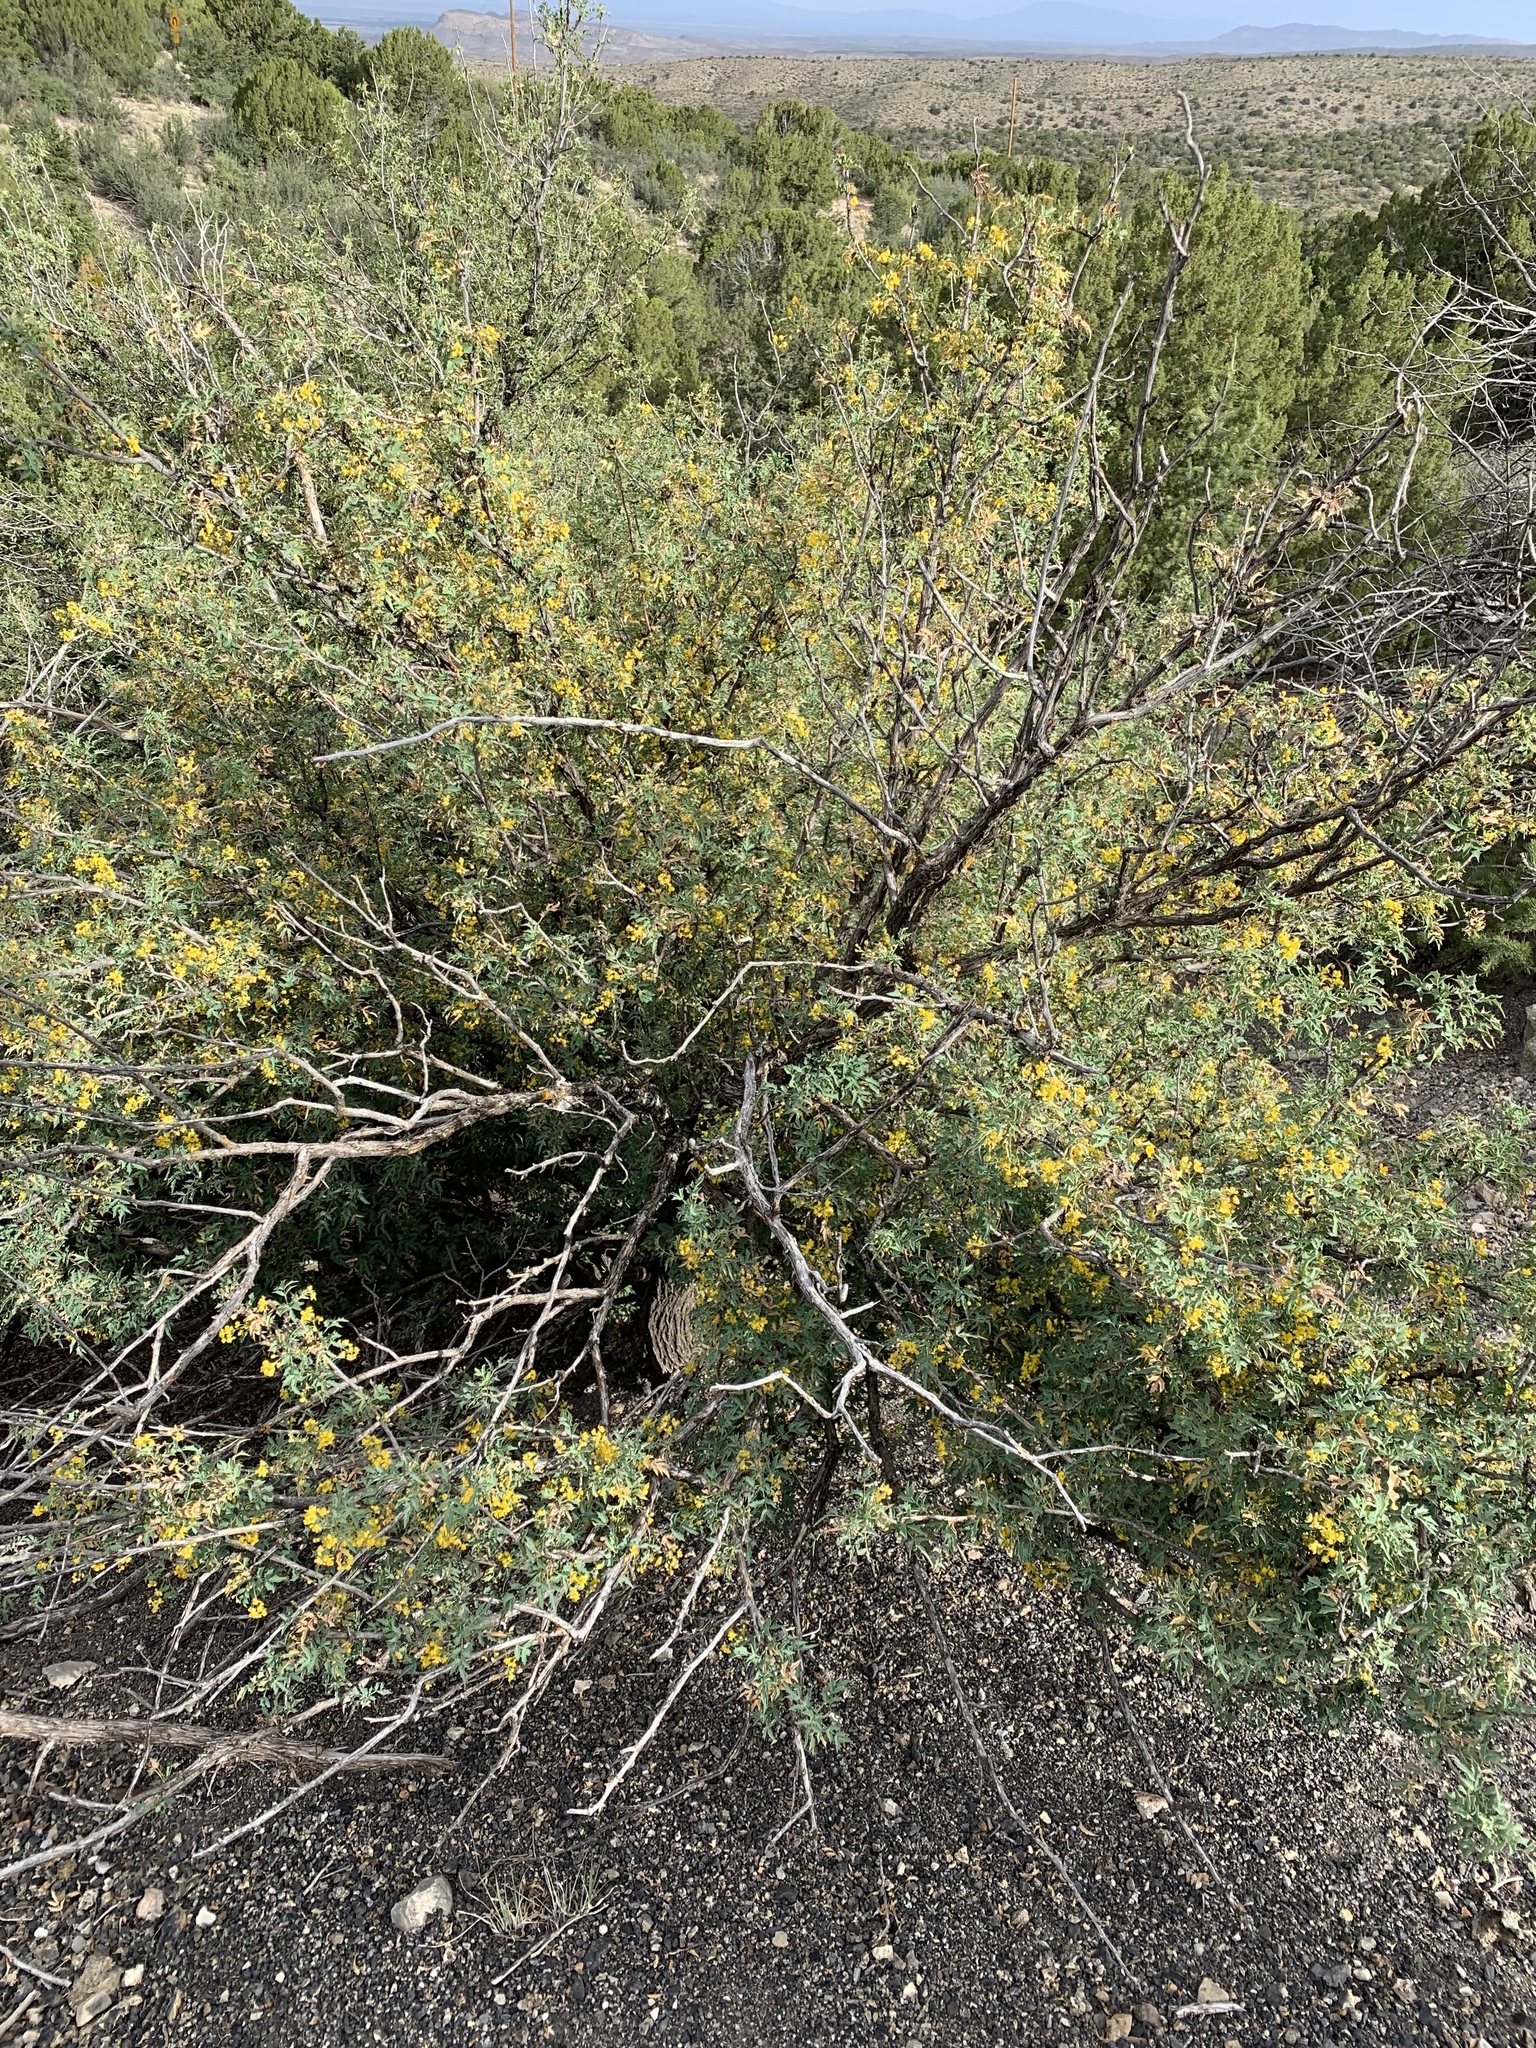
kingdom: Plantae
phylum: Tracheophyta
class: Magnoliopsida
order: Ranunculales
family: Berberidaceae
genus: Alloberberis
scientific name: Alloberberis haematocarpa
